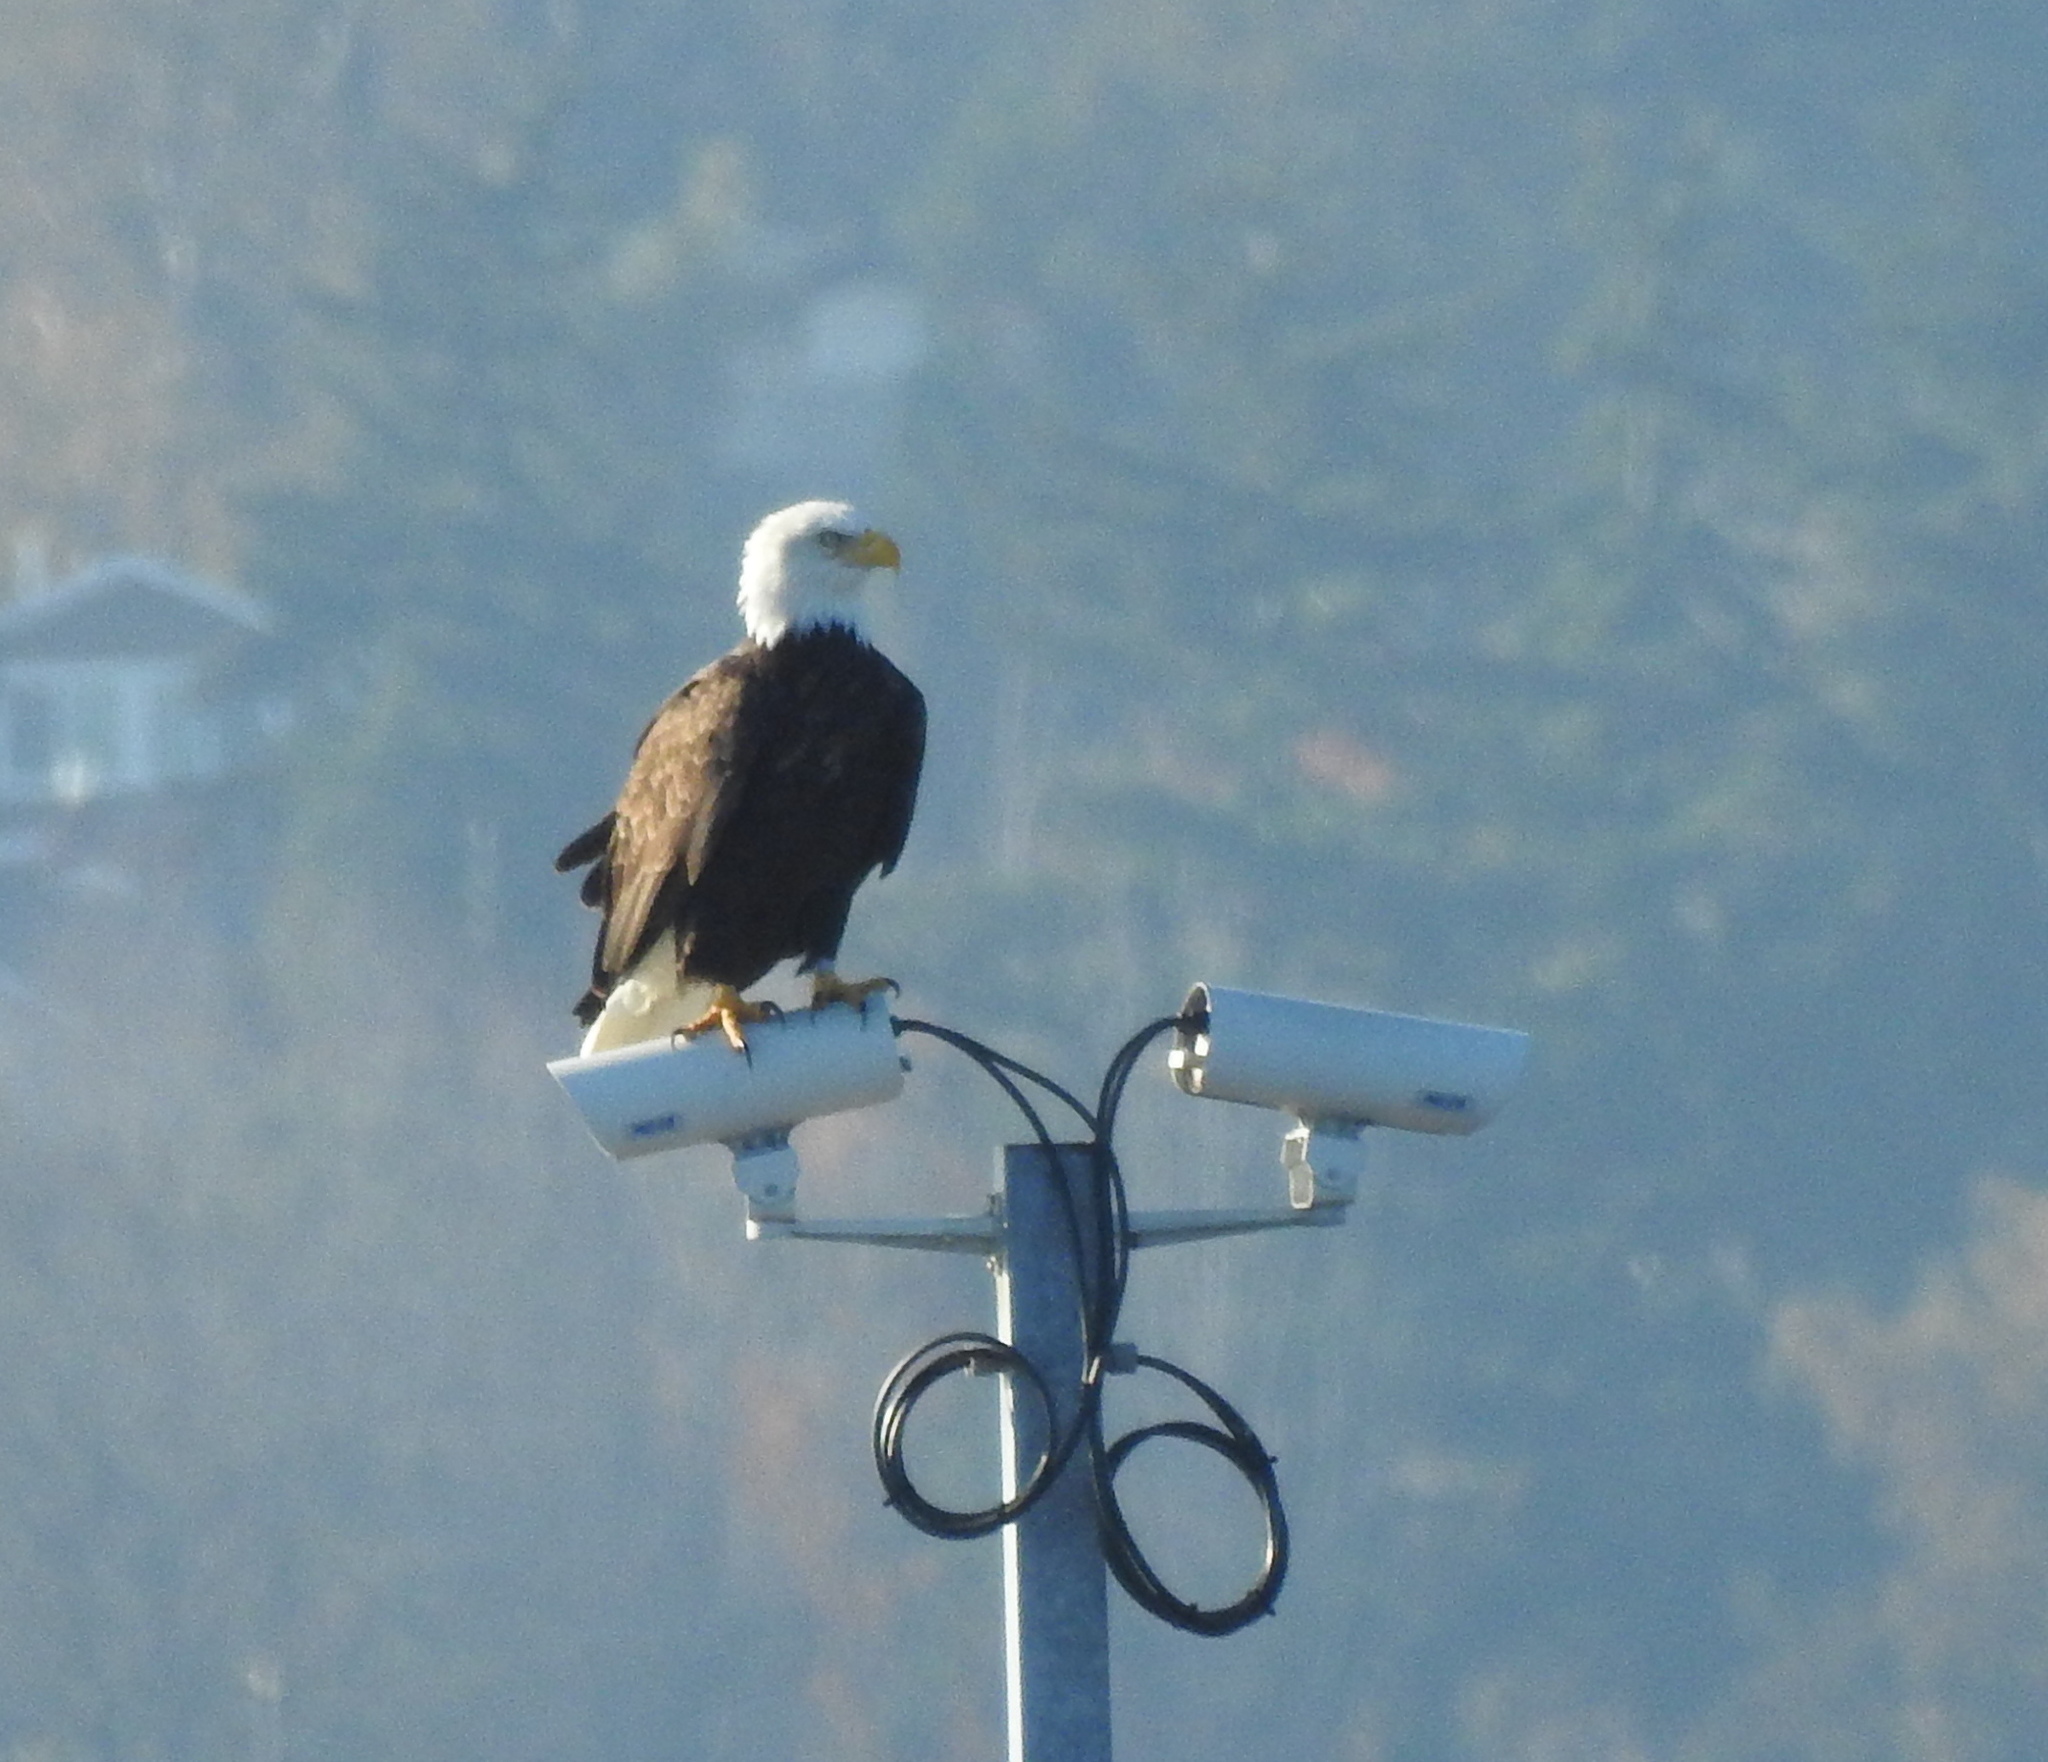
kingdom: Animalia
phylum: Chordata
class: Aves
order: Accipitriformes
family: Accipitridae
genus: Haliaeetus
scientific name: Haliaeetus leucocephalus
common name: Bald eagle
